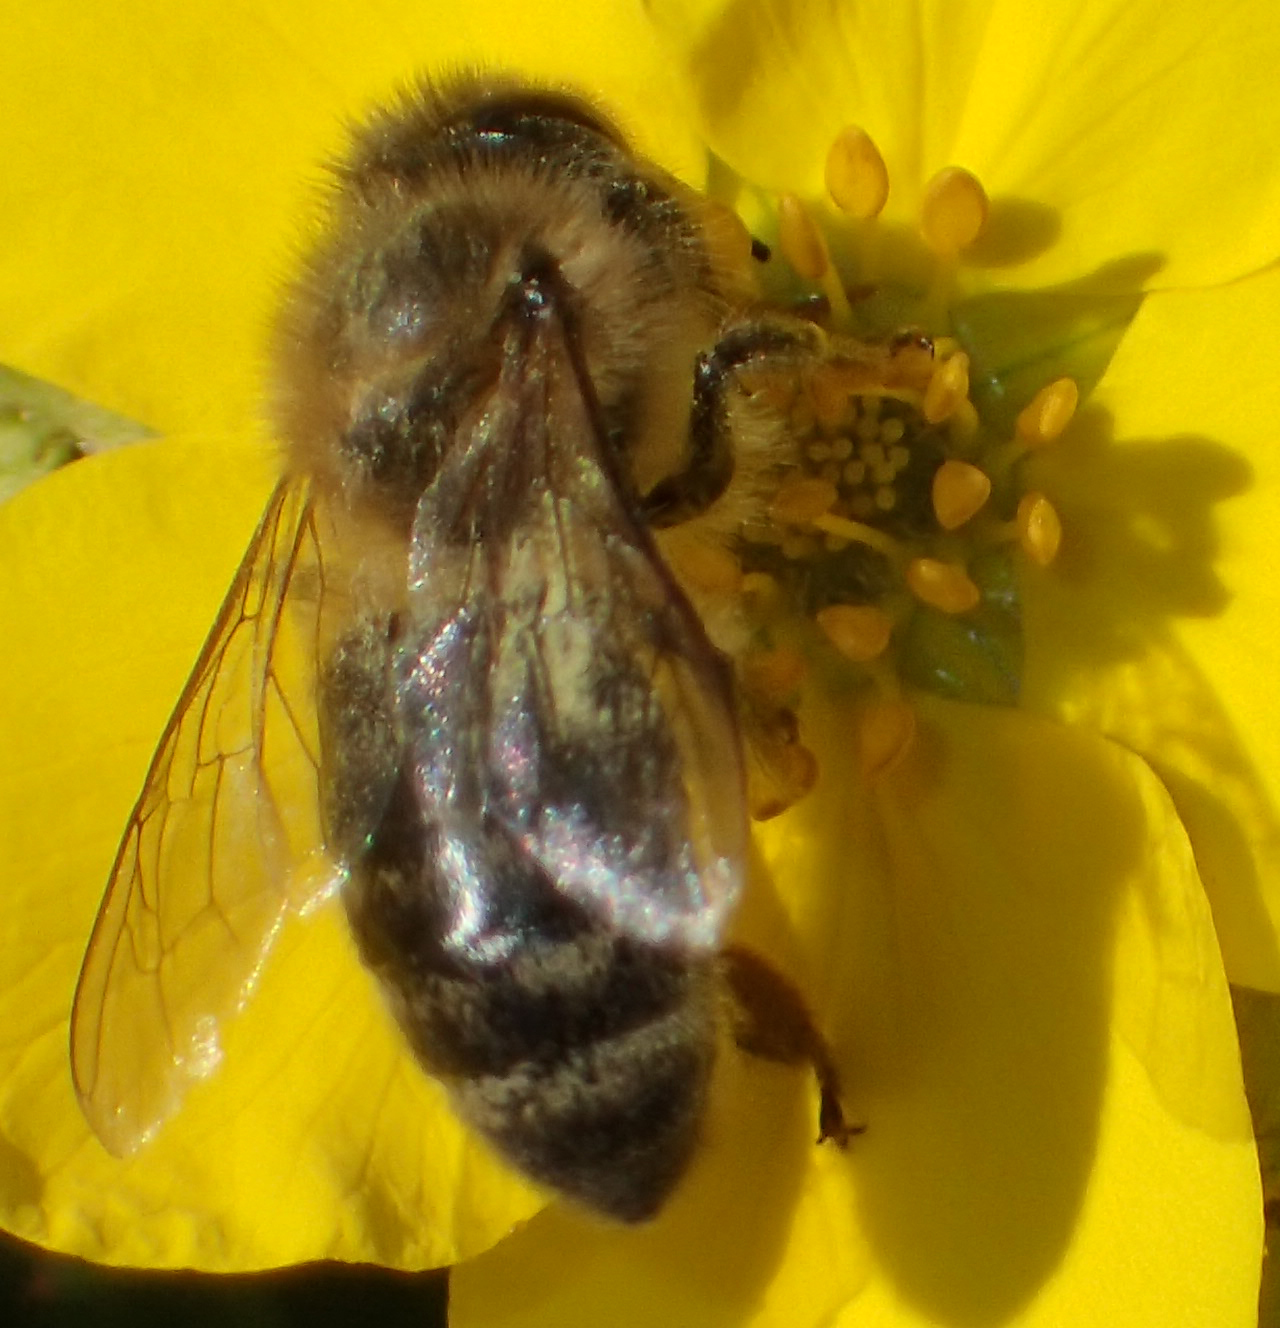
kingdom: Animalia
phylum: Arthropoda
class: Insecta
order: Hymenoptera
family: Apidae
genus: Apis
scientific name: Apis mellifera
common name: Honey bee
